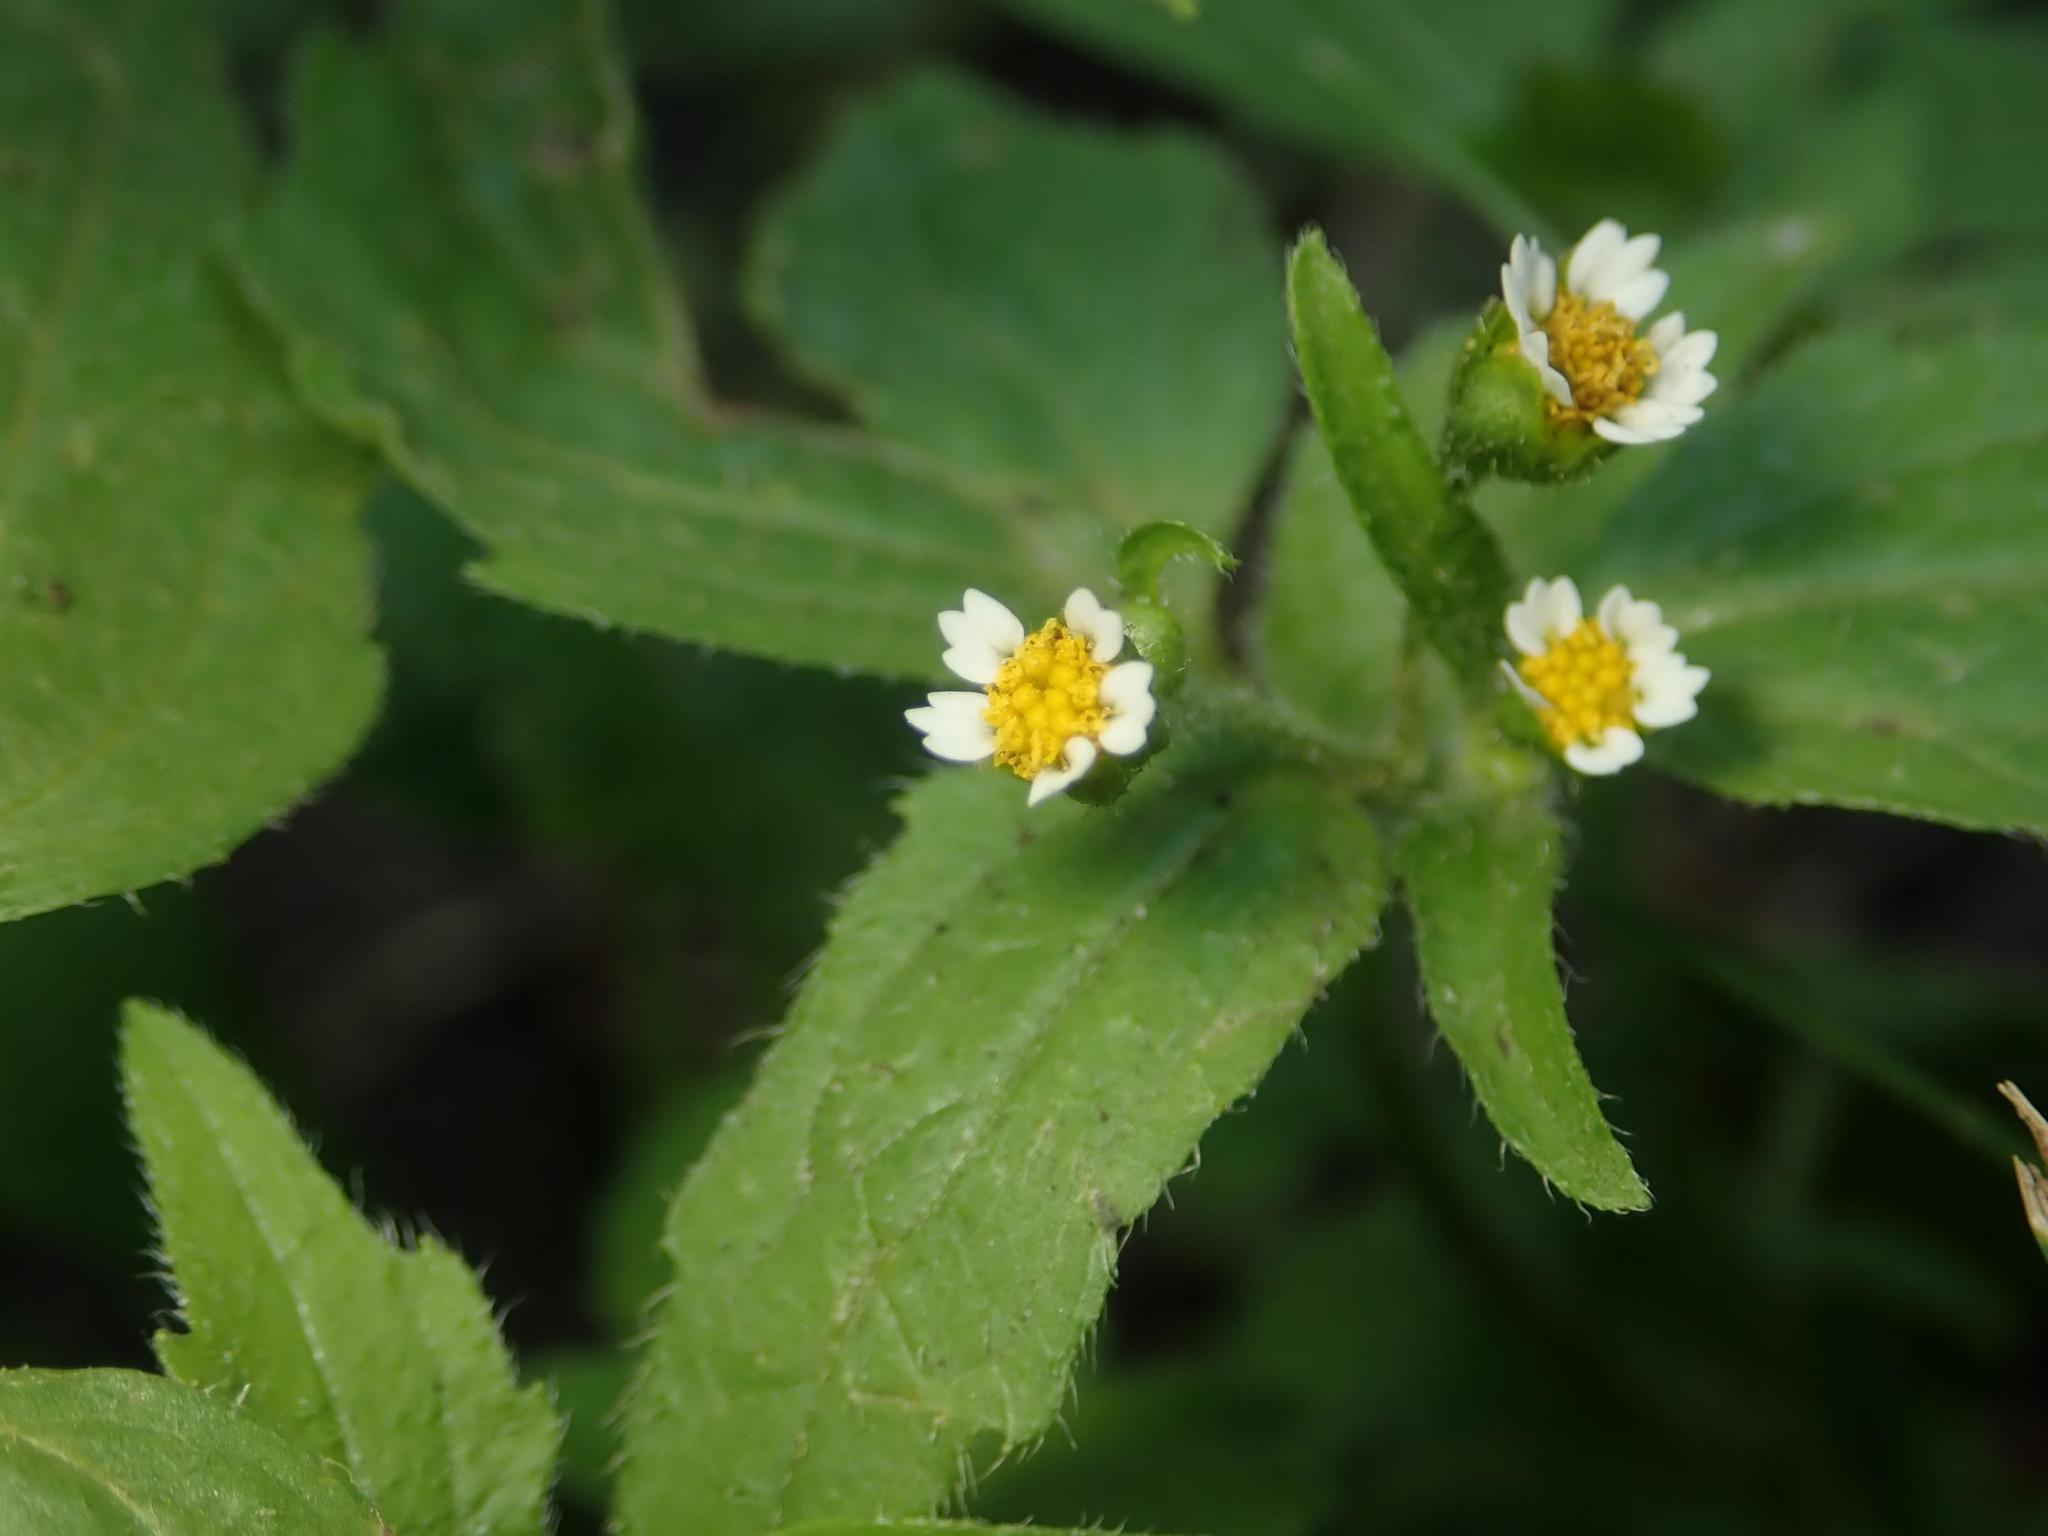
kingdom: Plantae
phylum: Tracheophyta
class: Magnoliopsida
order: Asterales
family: Asteraceae
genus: Galinsoga
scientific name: Galinsoga quadriradiata
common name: Shaggy soldier
